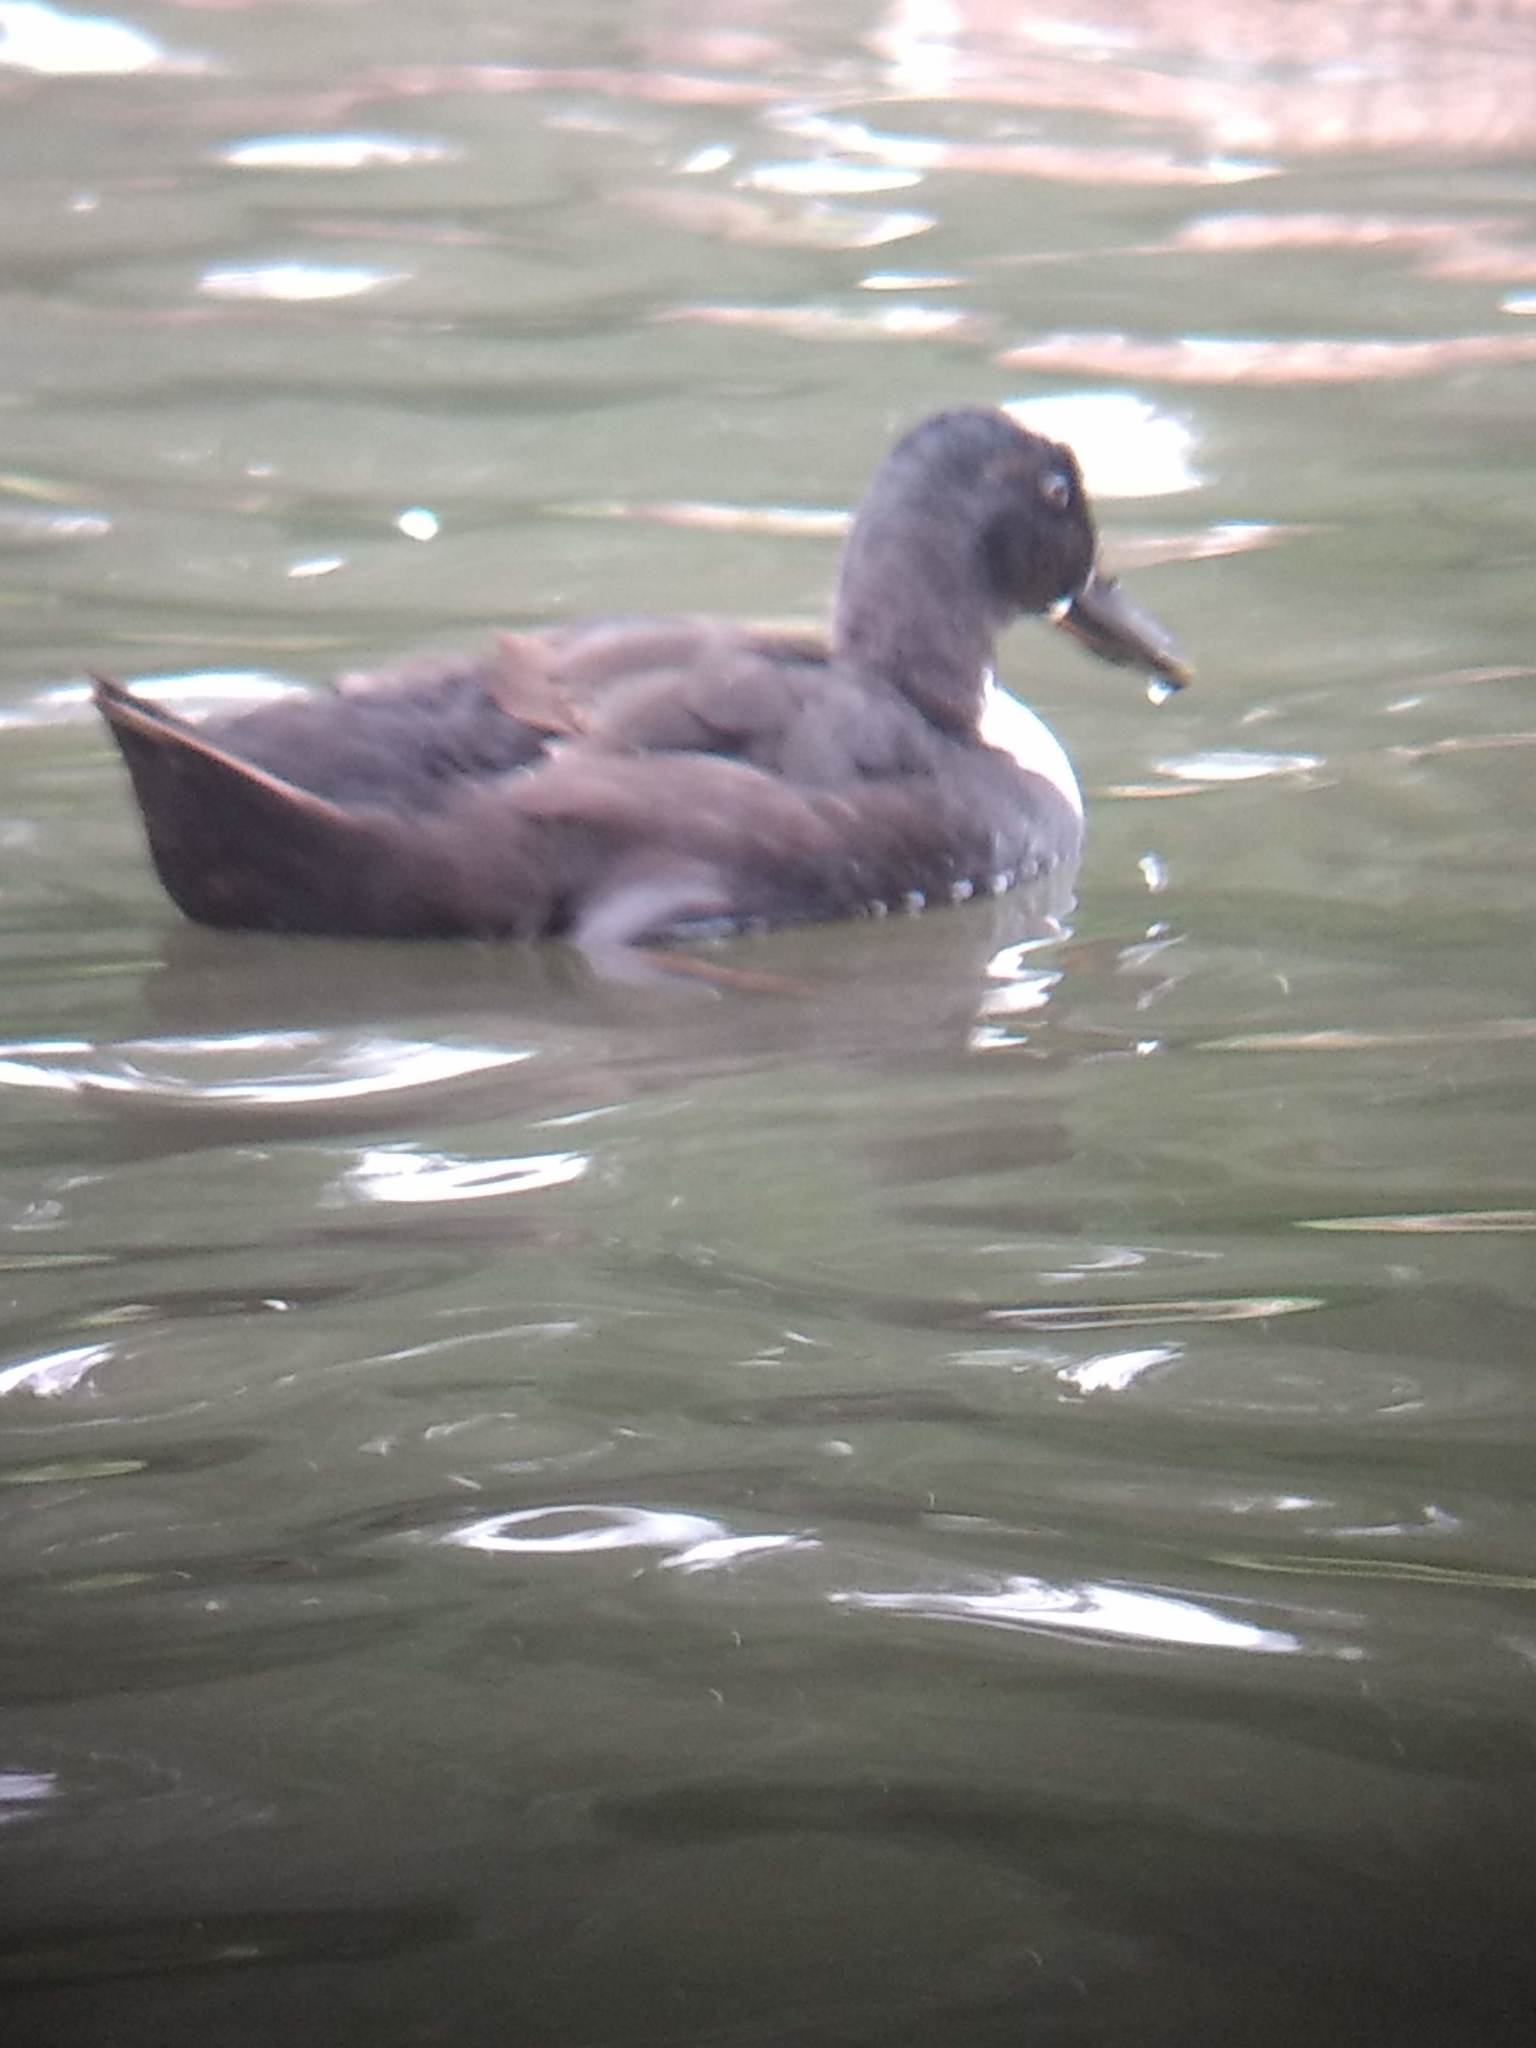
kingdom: Animalia
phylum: Chordata
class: Aves
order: Anseriformes
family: Anatidae
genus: Anas
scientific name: Anas platyrhynchos
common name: Mallard
